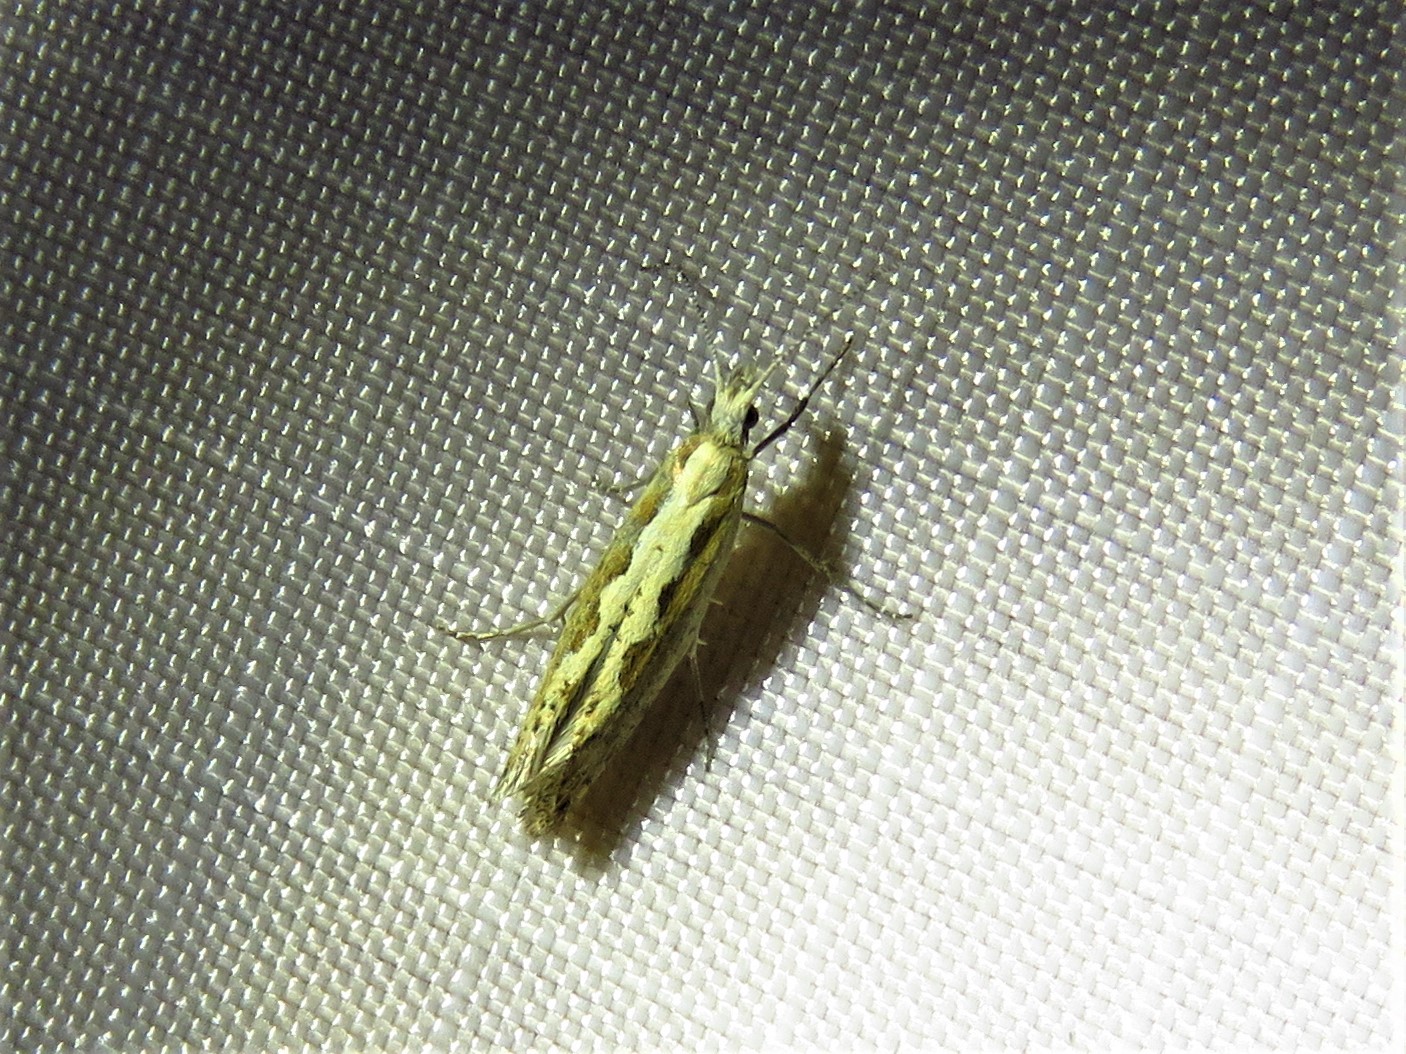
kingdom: Animalia
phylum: Arthropoda
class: Insecta
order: Lepidoptera
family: Plutellidae
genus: Plutella
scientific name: Plutella xylostella
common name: Diamond-back moth
